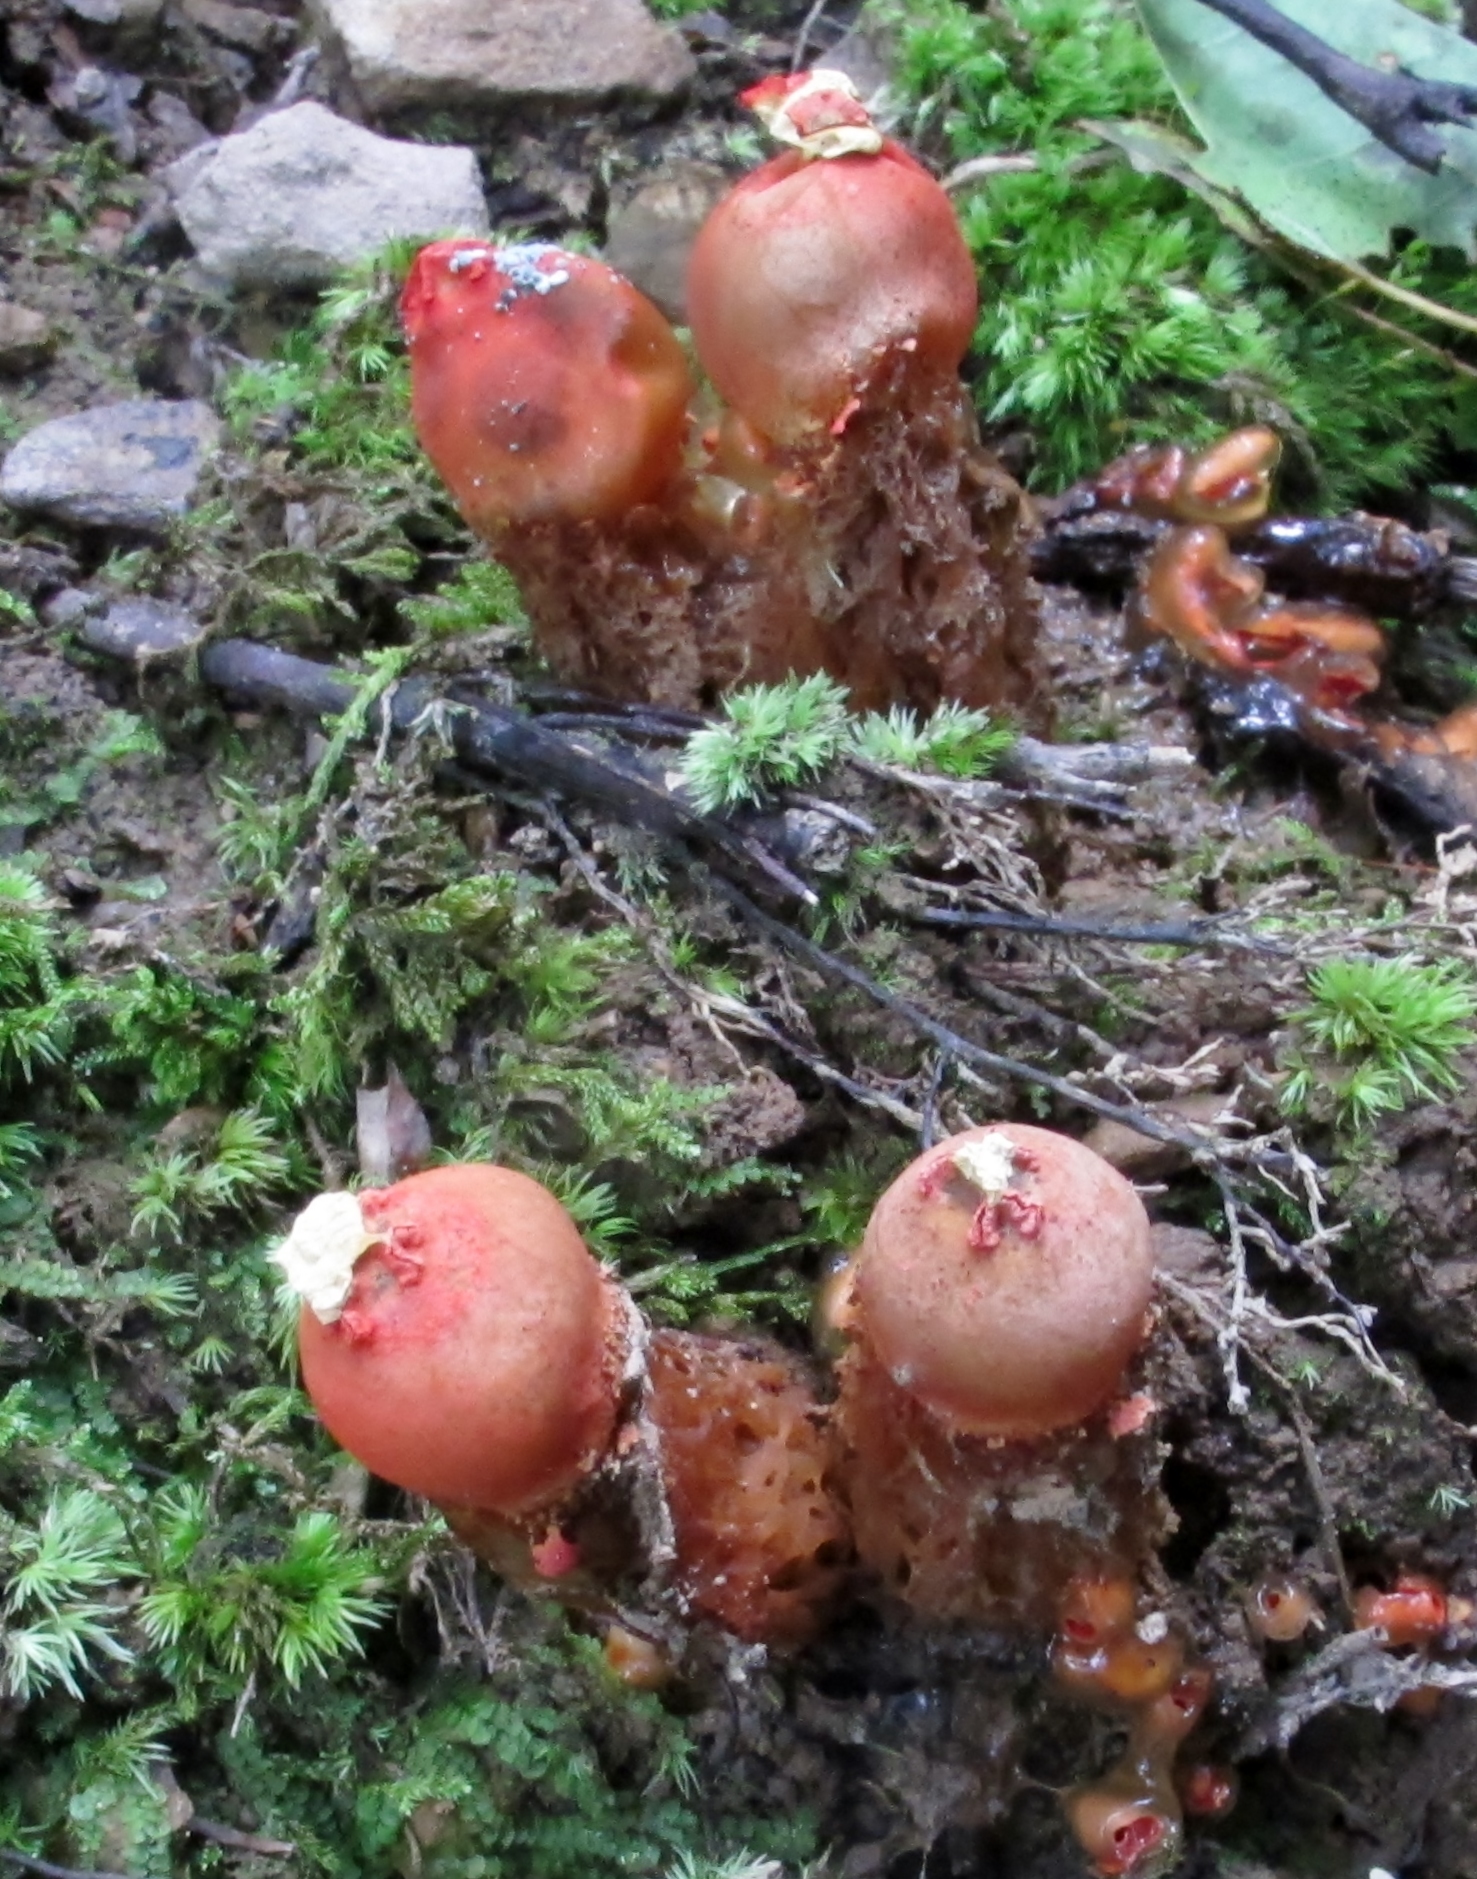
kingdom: Fungi
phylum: Basidiomycota
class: Agaricomycetes
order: Boletales
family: Calostomataceae
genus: Calostoma
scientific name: Calostoma cinnabarinum
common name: Stalked puffball-in-aspic
